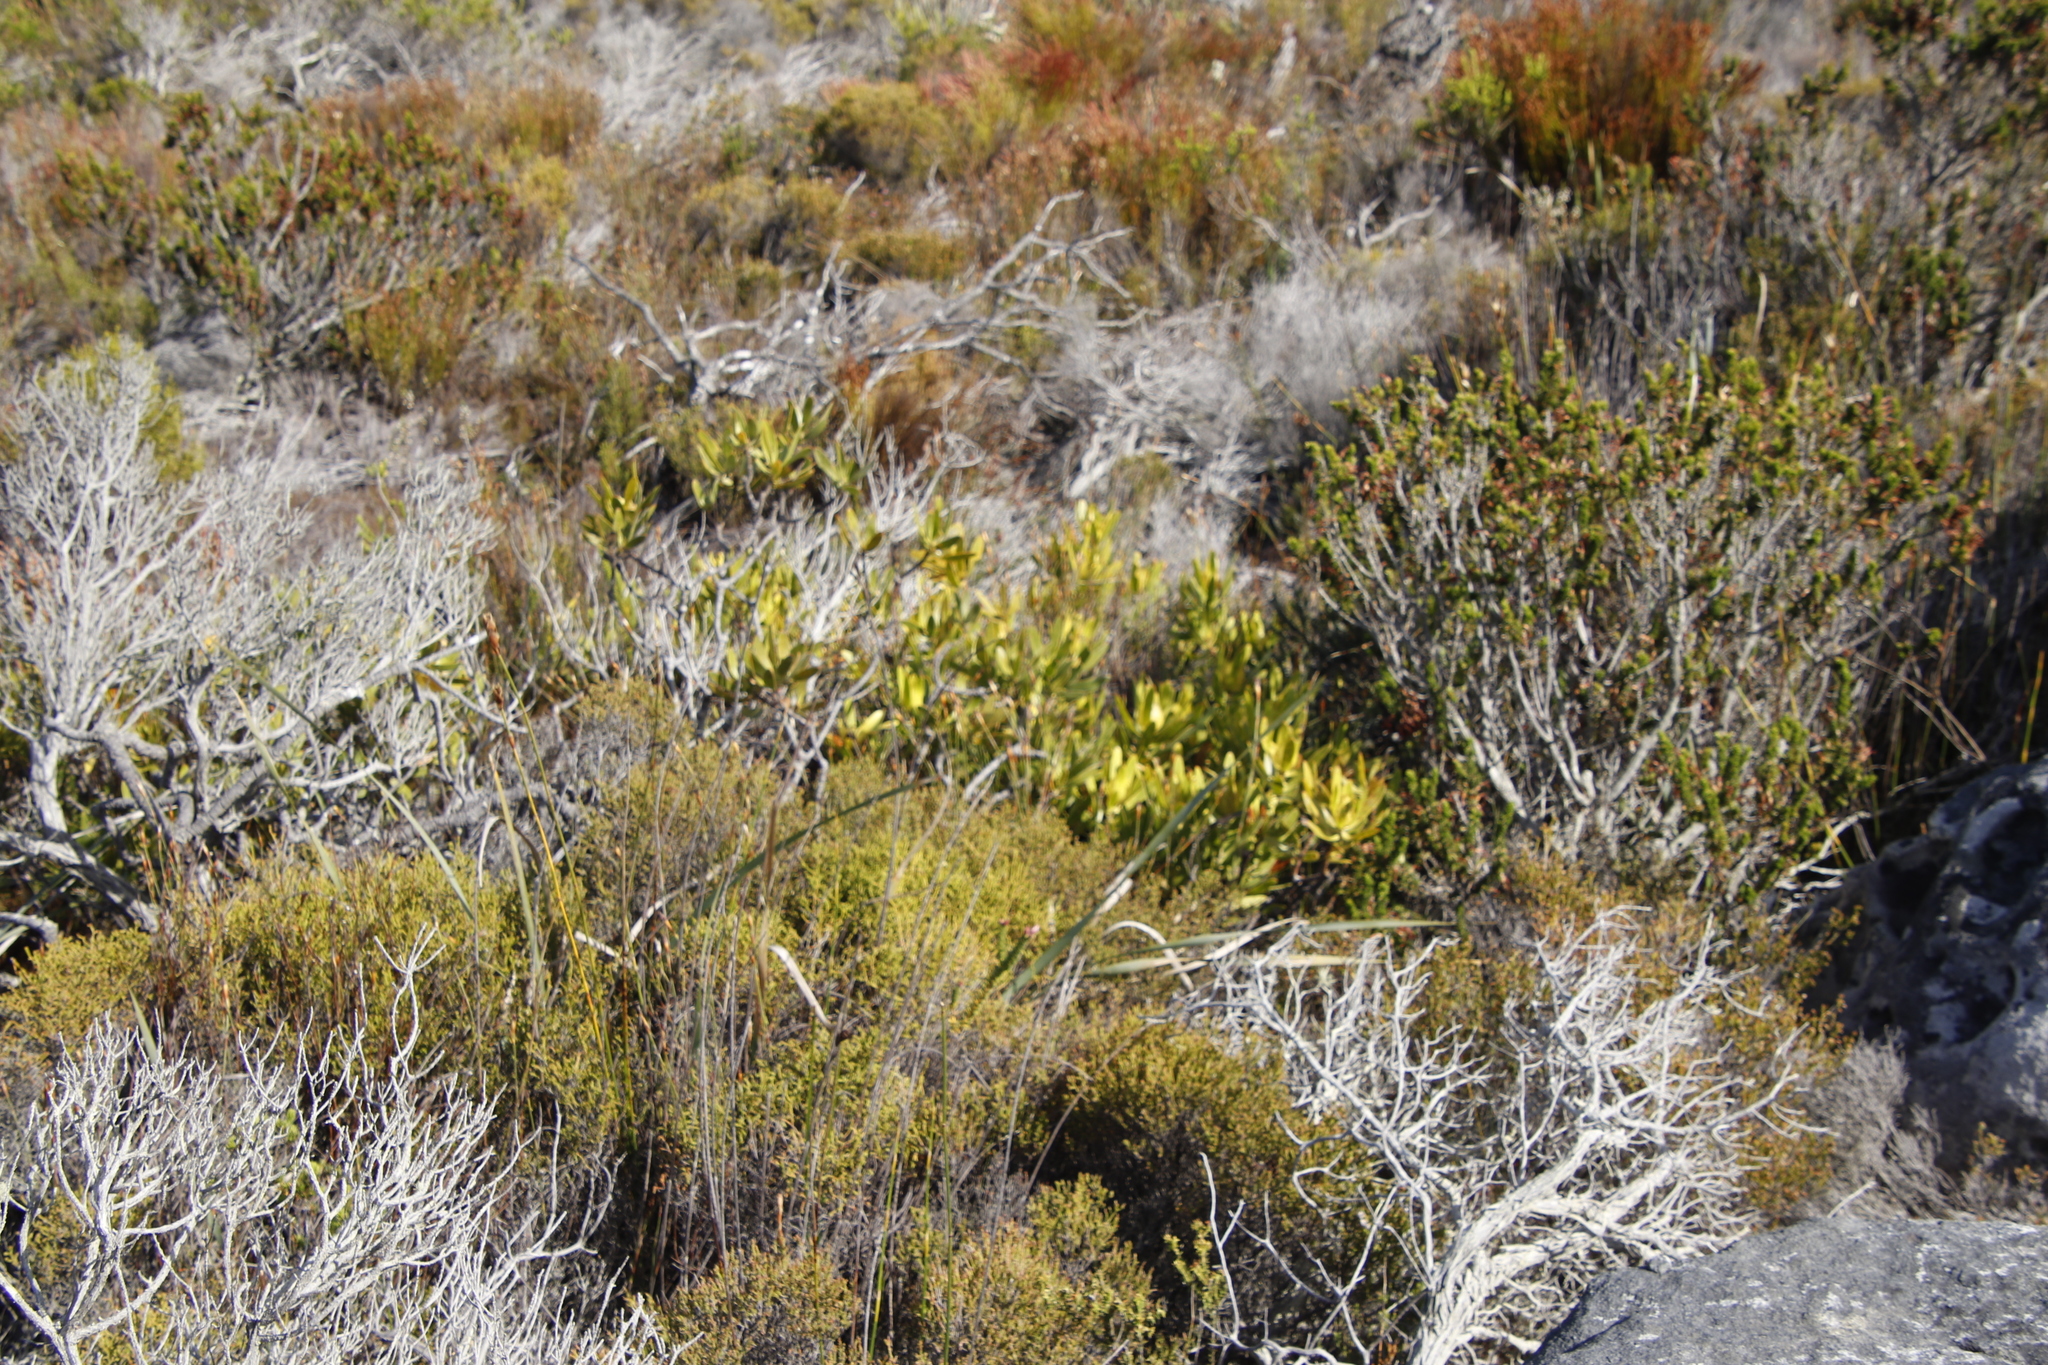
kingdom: Plantae
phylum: Tracheophyta
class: Magnoliopsida
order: Proteales
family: Proteaceae
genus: Leucadendron
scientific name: Leucadendron salignum
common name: Common sunshine conebush
